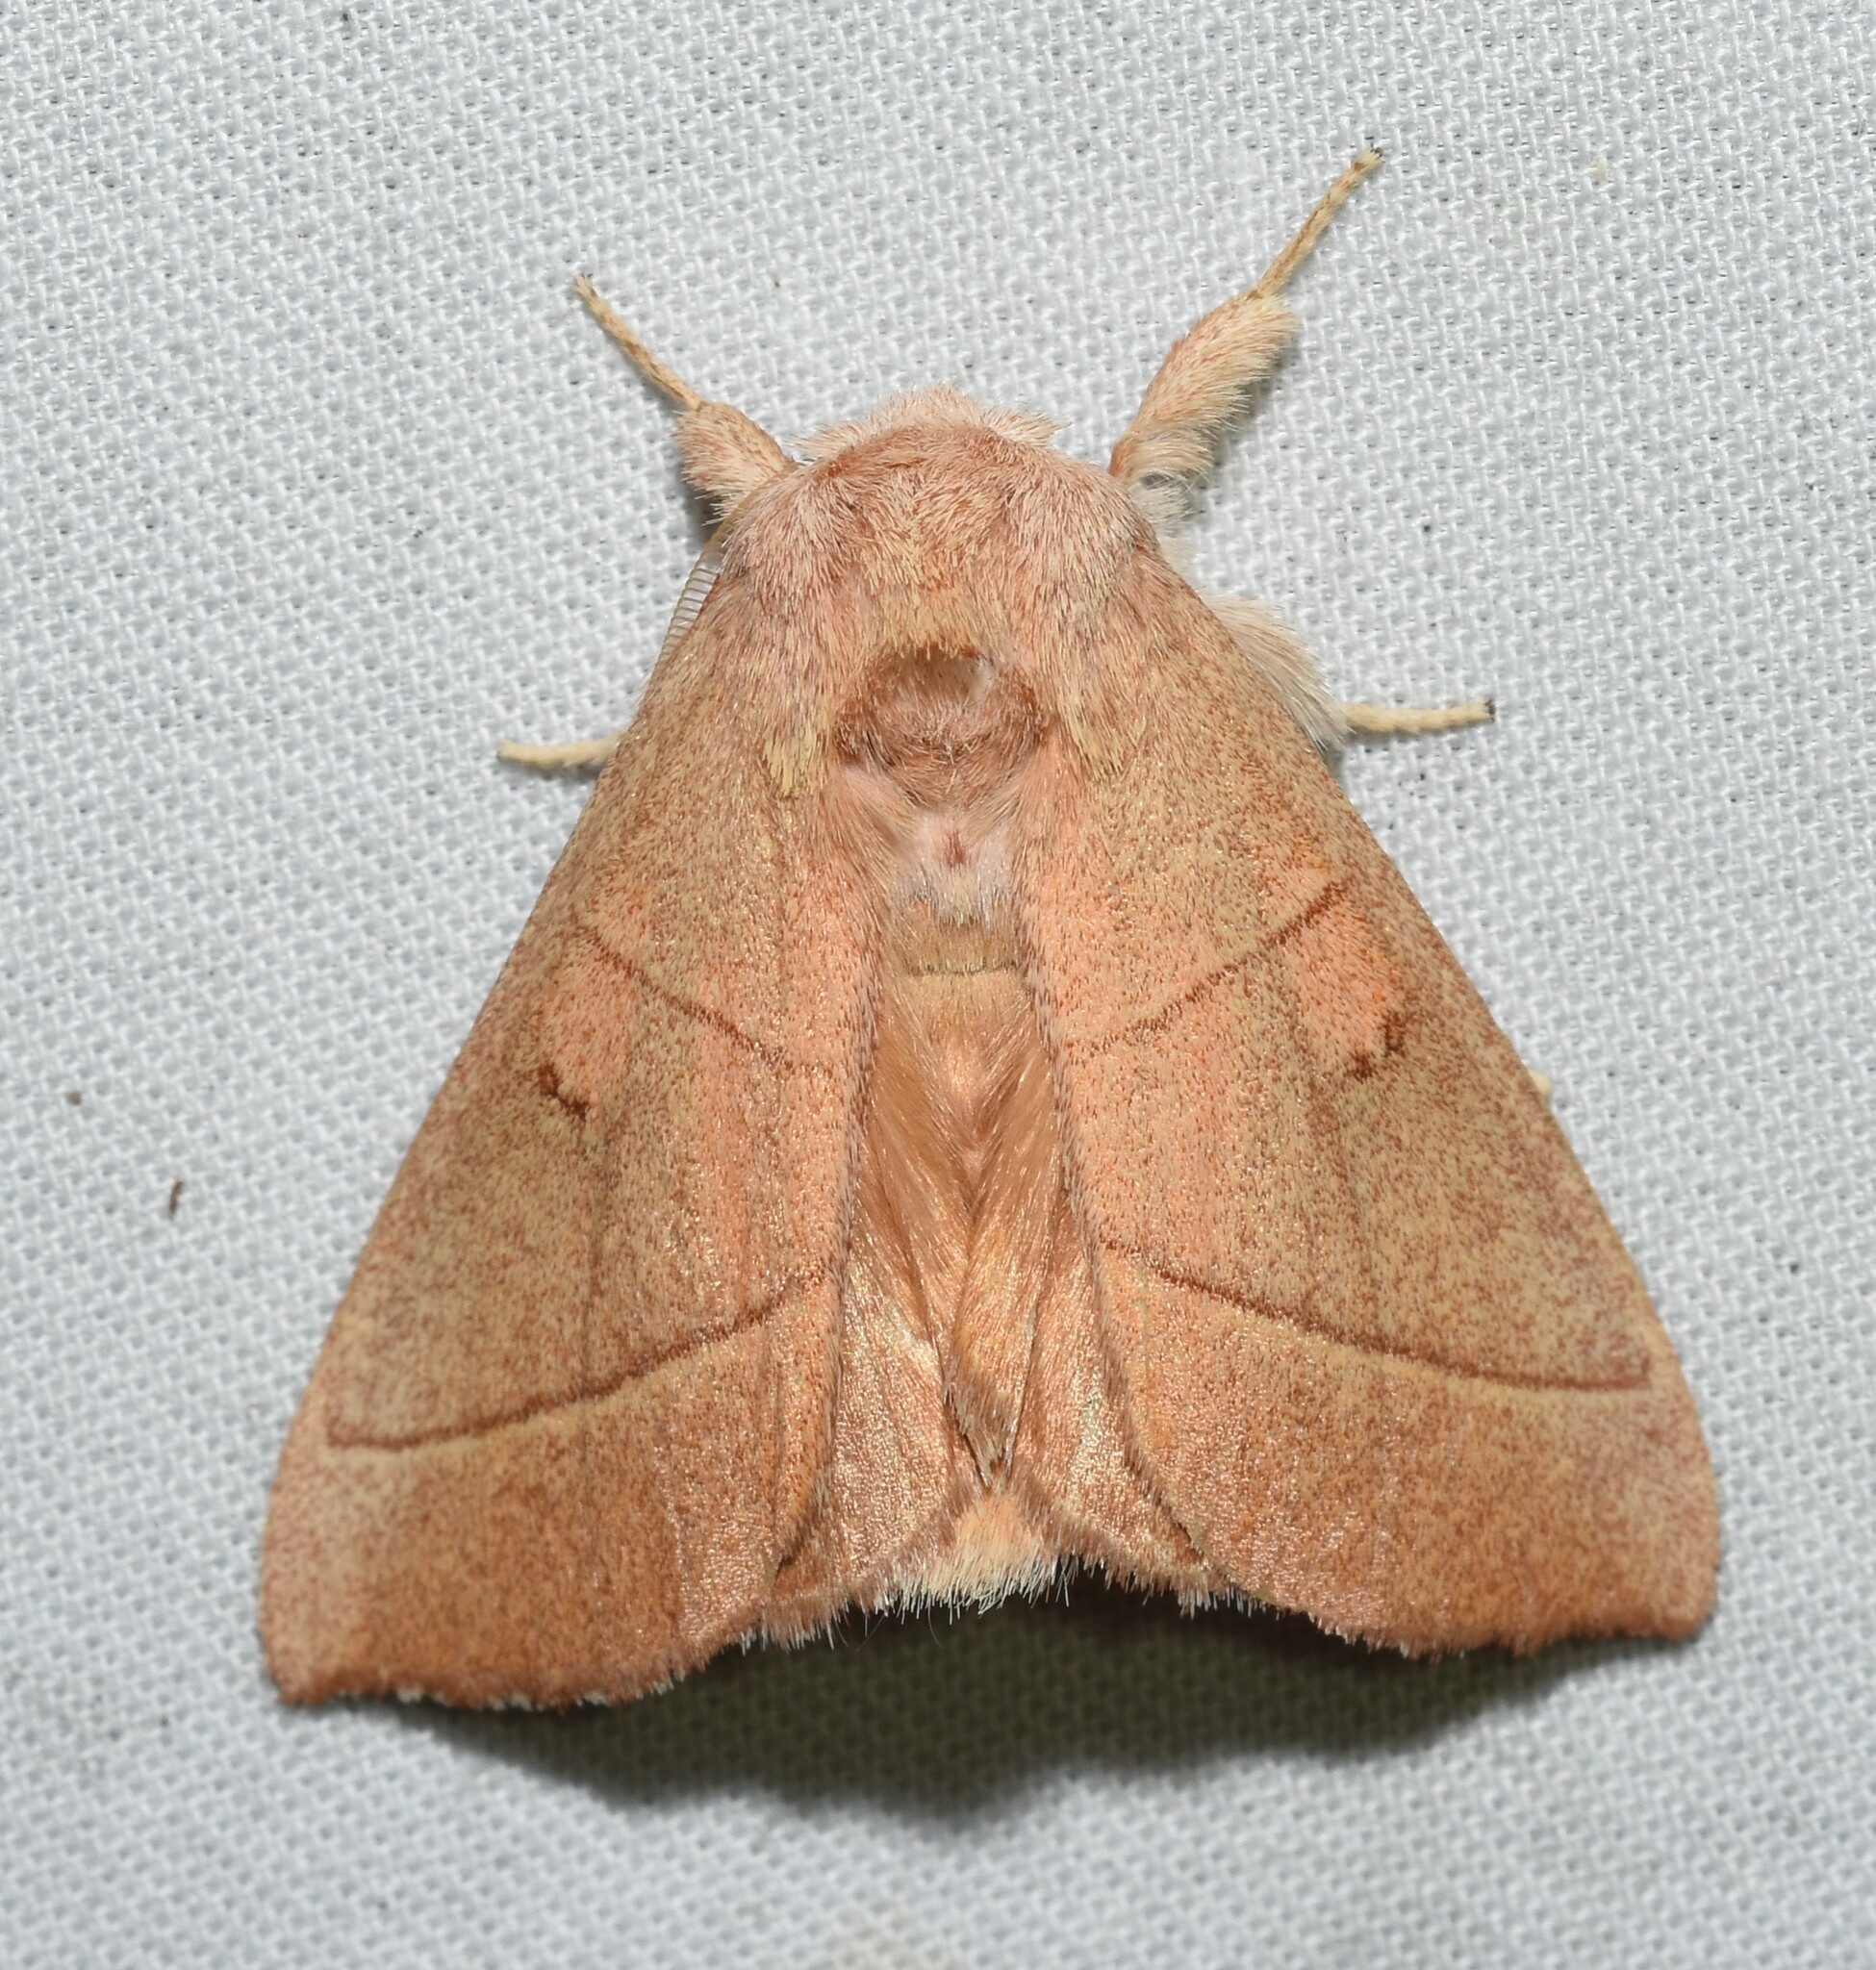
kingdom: Animalia
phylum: Arthropoda
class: Insecta
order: Lepidoptera
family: Notodontidae
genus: Nadata
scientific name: Nadata gibbosa
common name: White-dotted prominent
